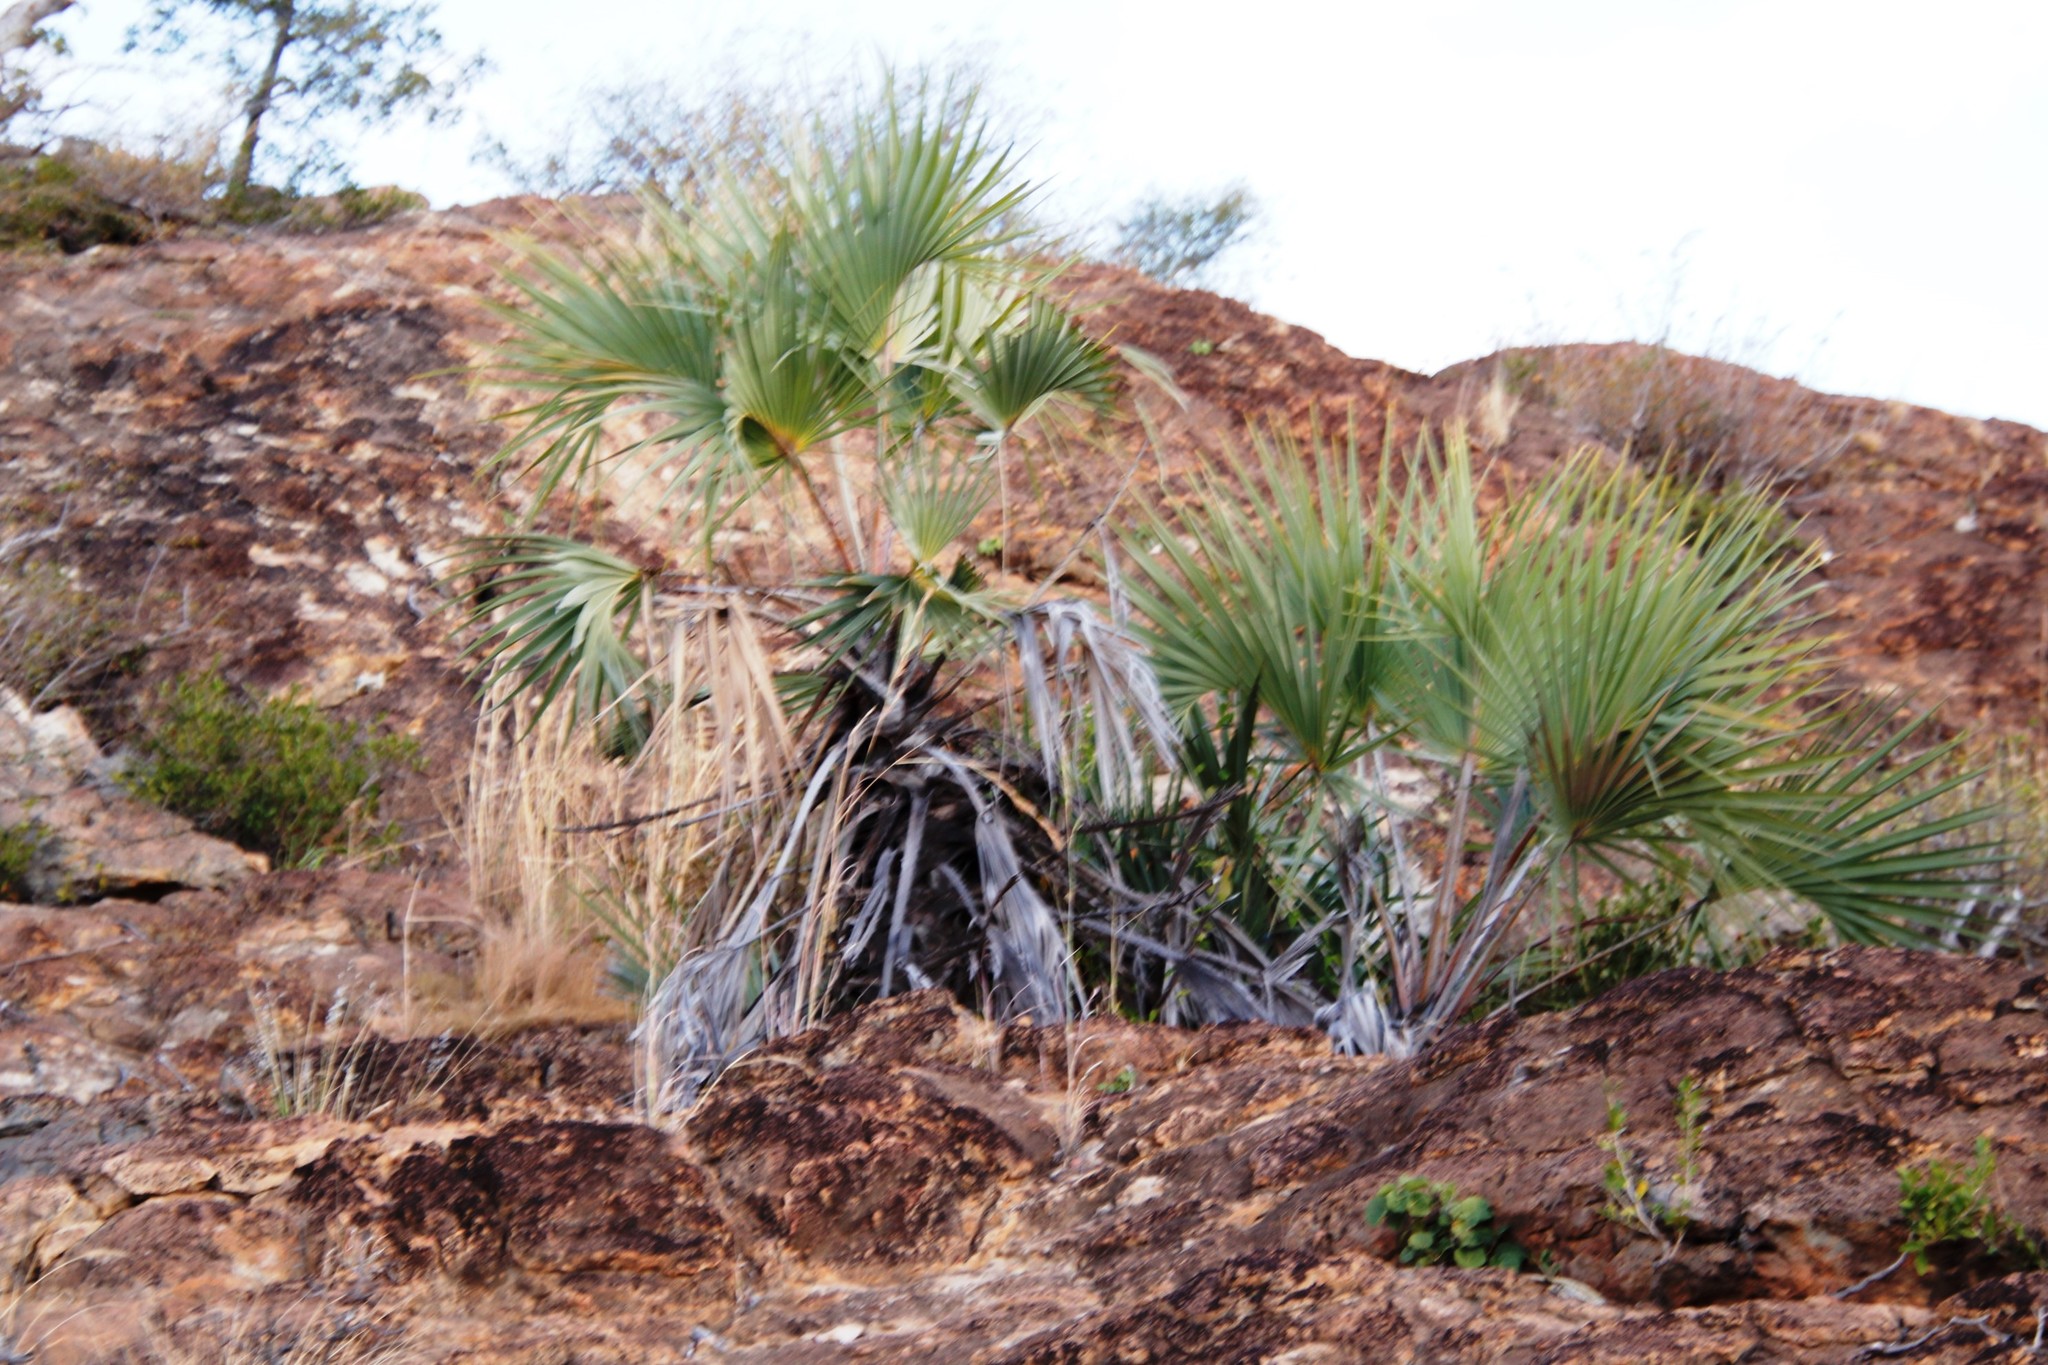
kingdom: Plantae
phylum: Tracheophyta
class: Liliopsida
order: Arecales
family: Arecaceae
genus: Hyphaene
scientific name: Hyphaene coriacea
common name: Ilala palm
